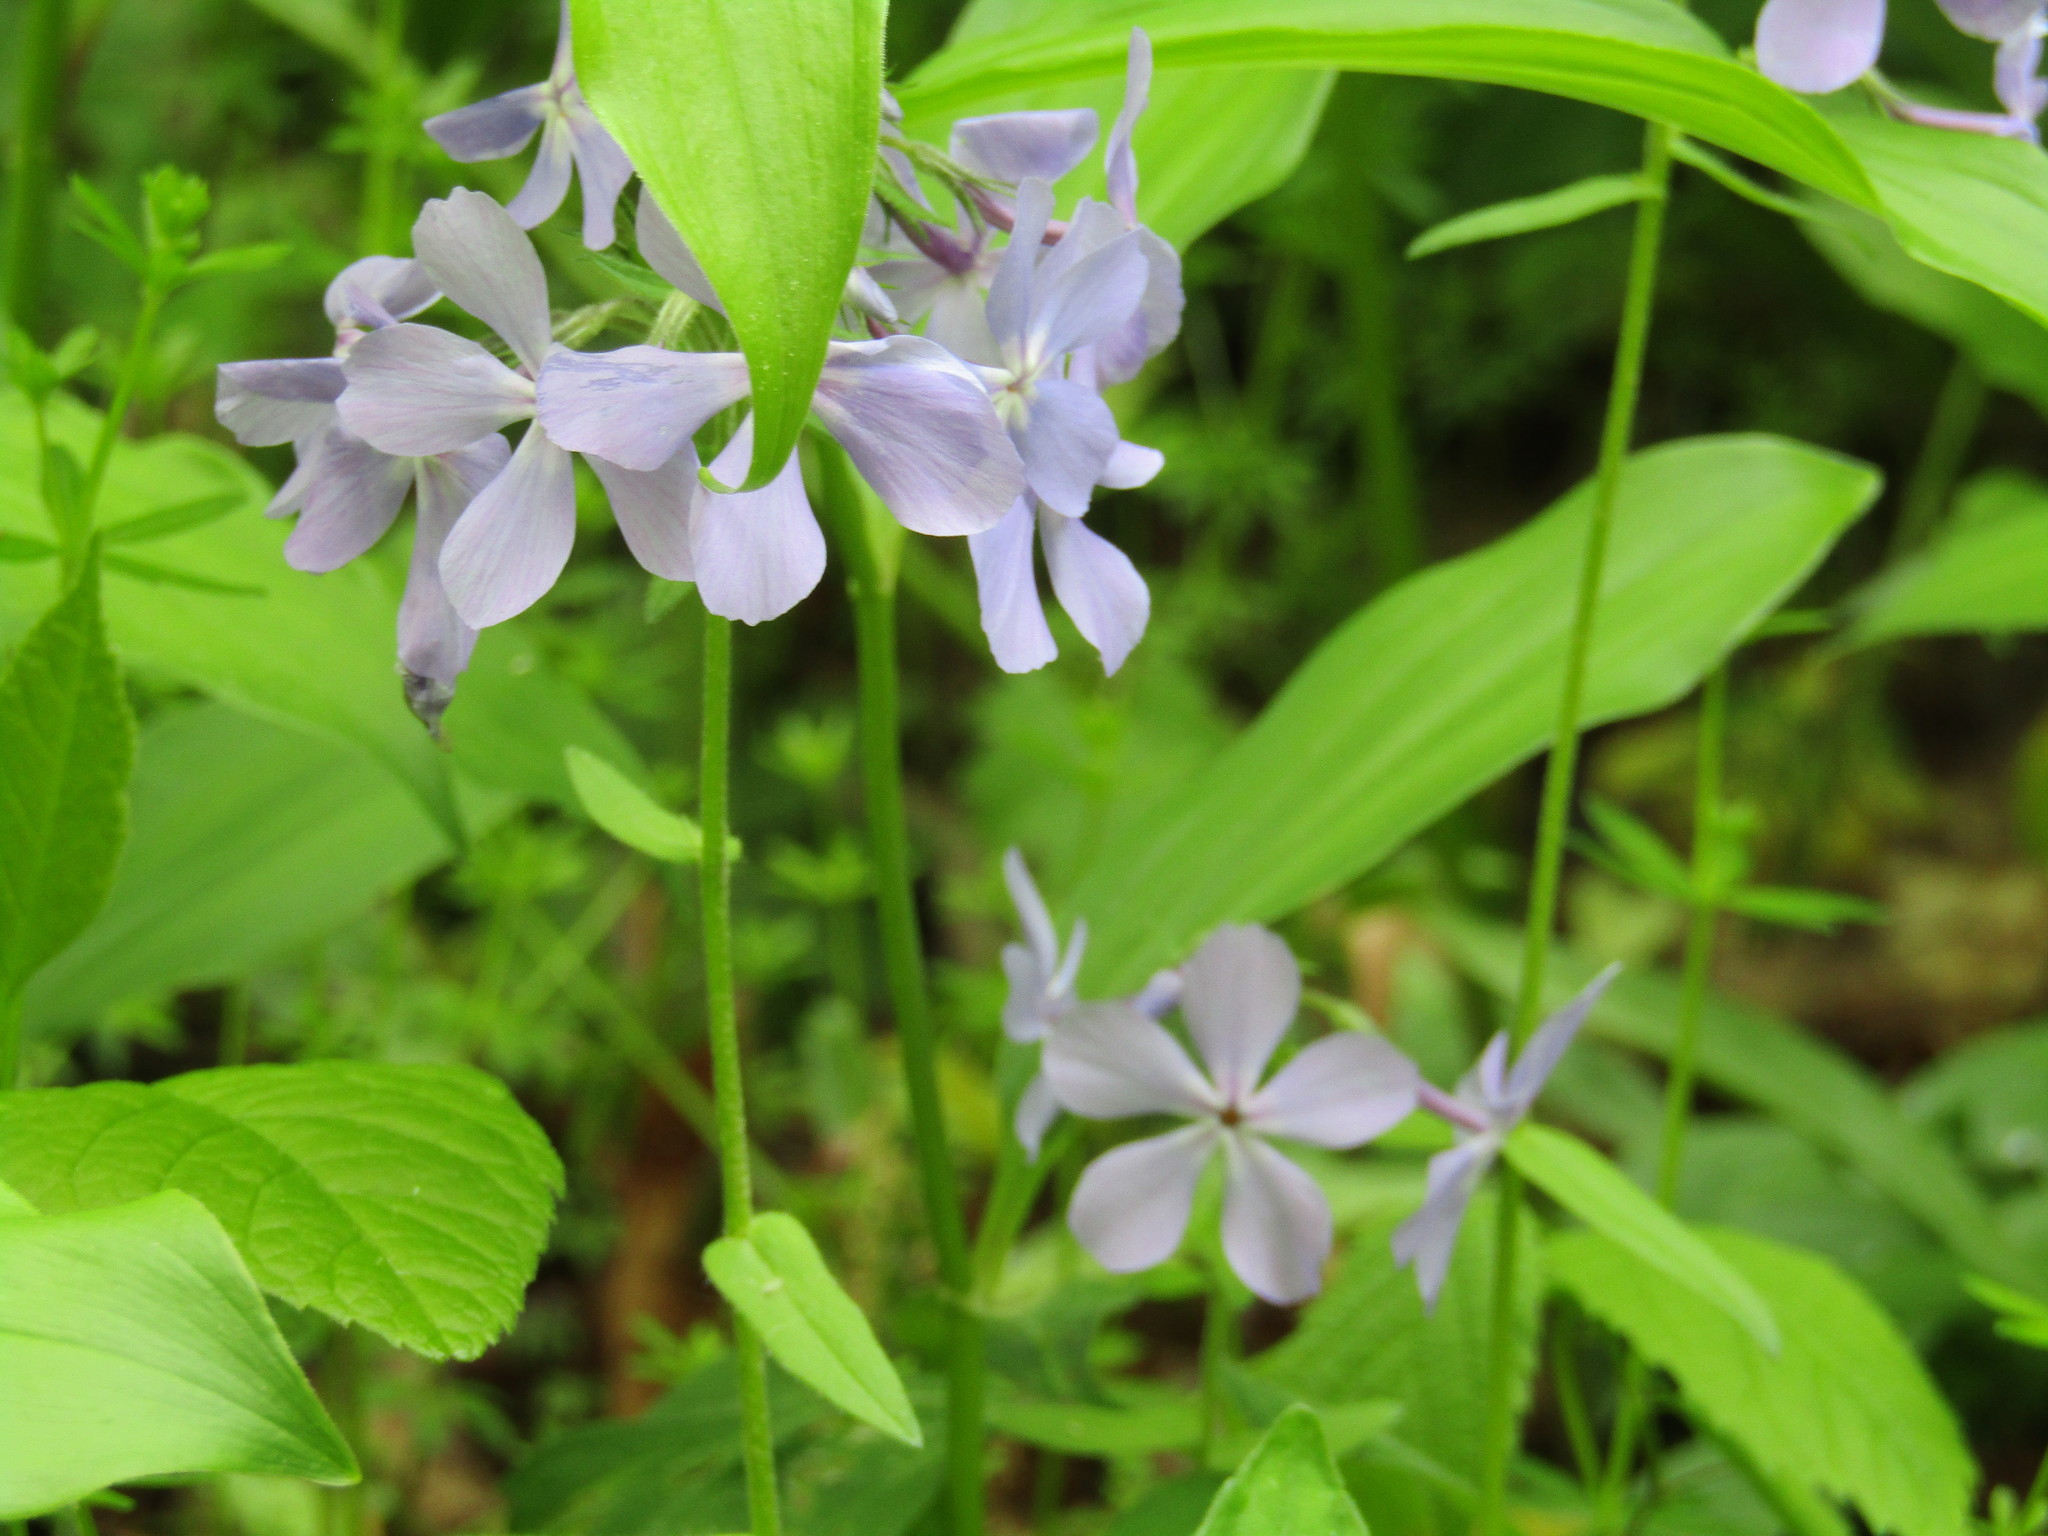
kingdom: Plantae
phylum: Tracheophyta
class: Magnoliopsida
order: Ericales
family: Polemoniaceae
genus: Phlox
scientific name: Phlox divaricata
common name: Blue phlox
